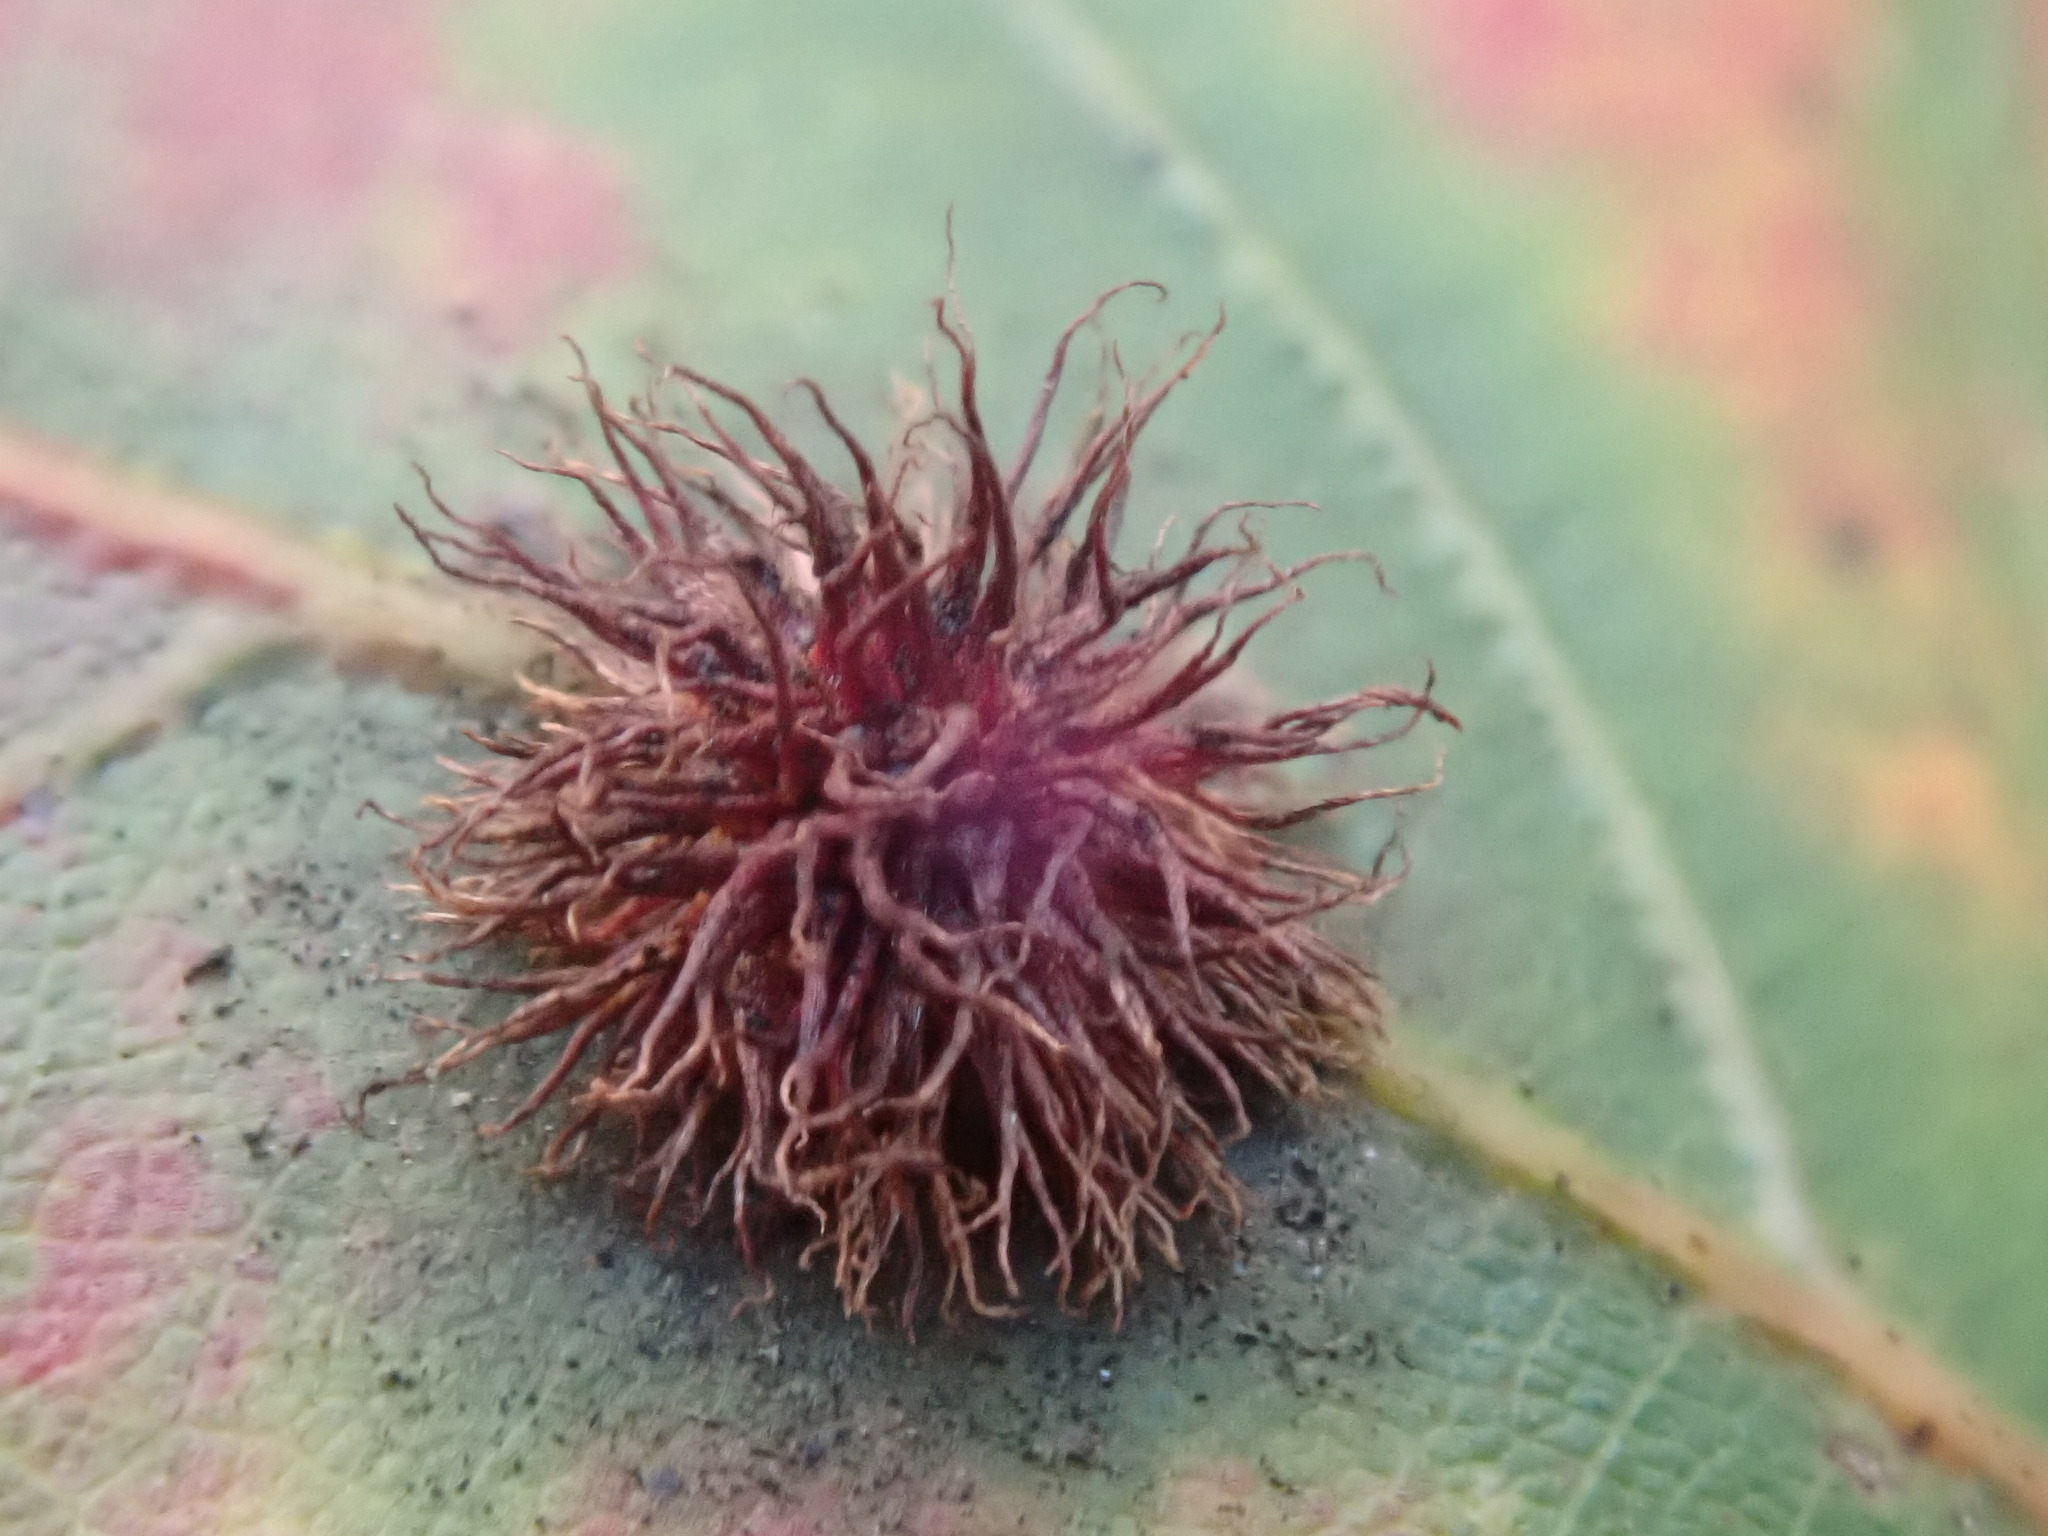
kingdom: Animalia
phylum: Arthropoda
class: Insecta
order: Hymenoptera
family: Cynipidae
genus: Acraspis
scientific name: Acraspis erinacei
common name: Hedgehog gall wasp
